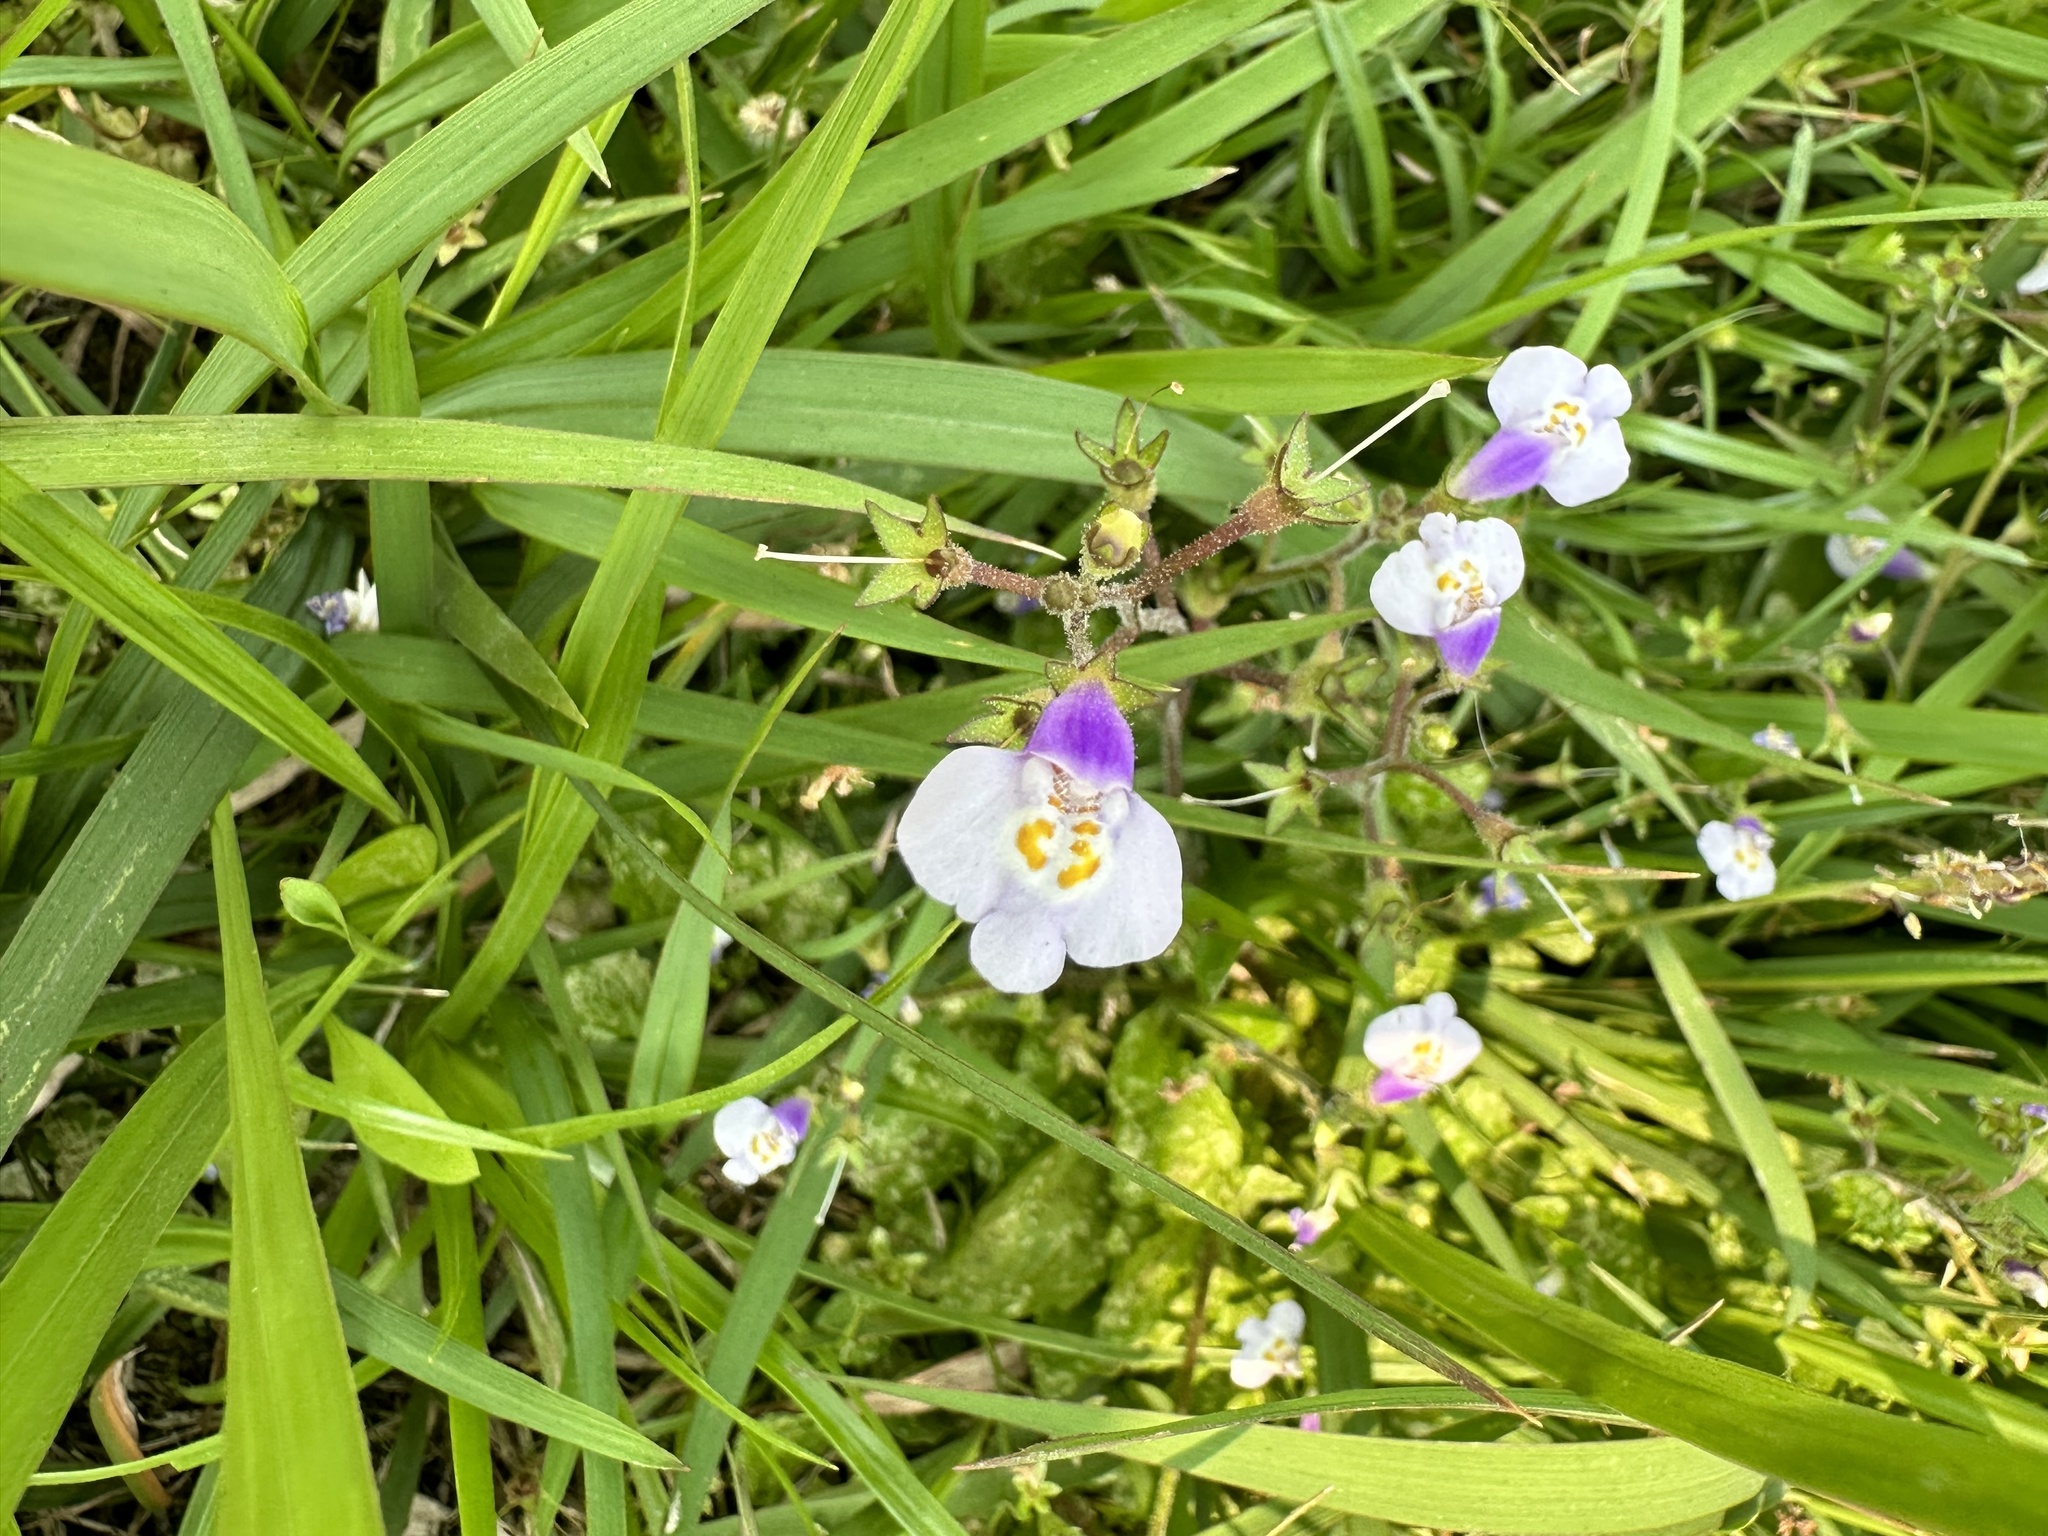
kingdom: Plantae
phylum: Tracheophyta
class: Magnoliopsida
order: Lamiales
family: Mazaceae
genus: Mazus
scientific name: Mazus fauriei
